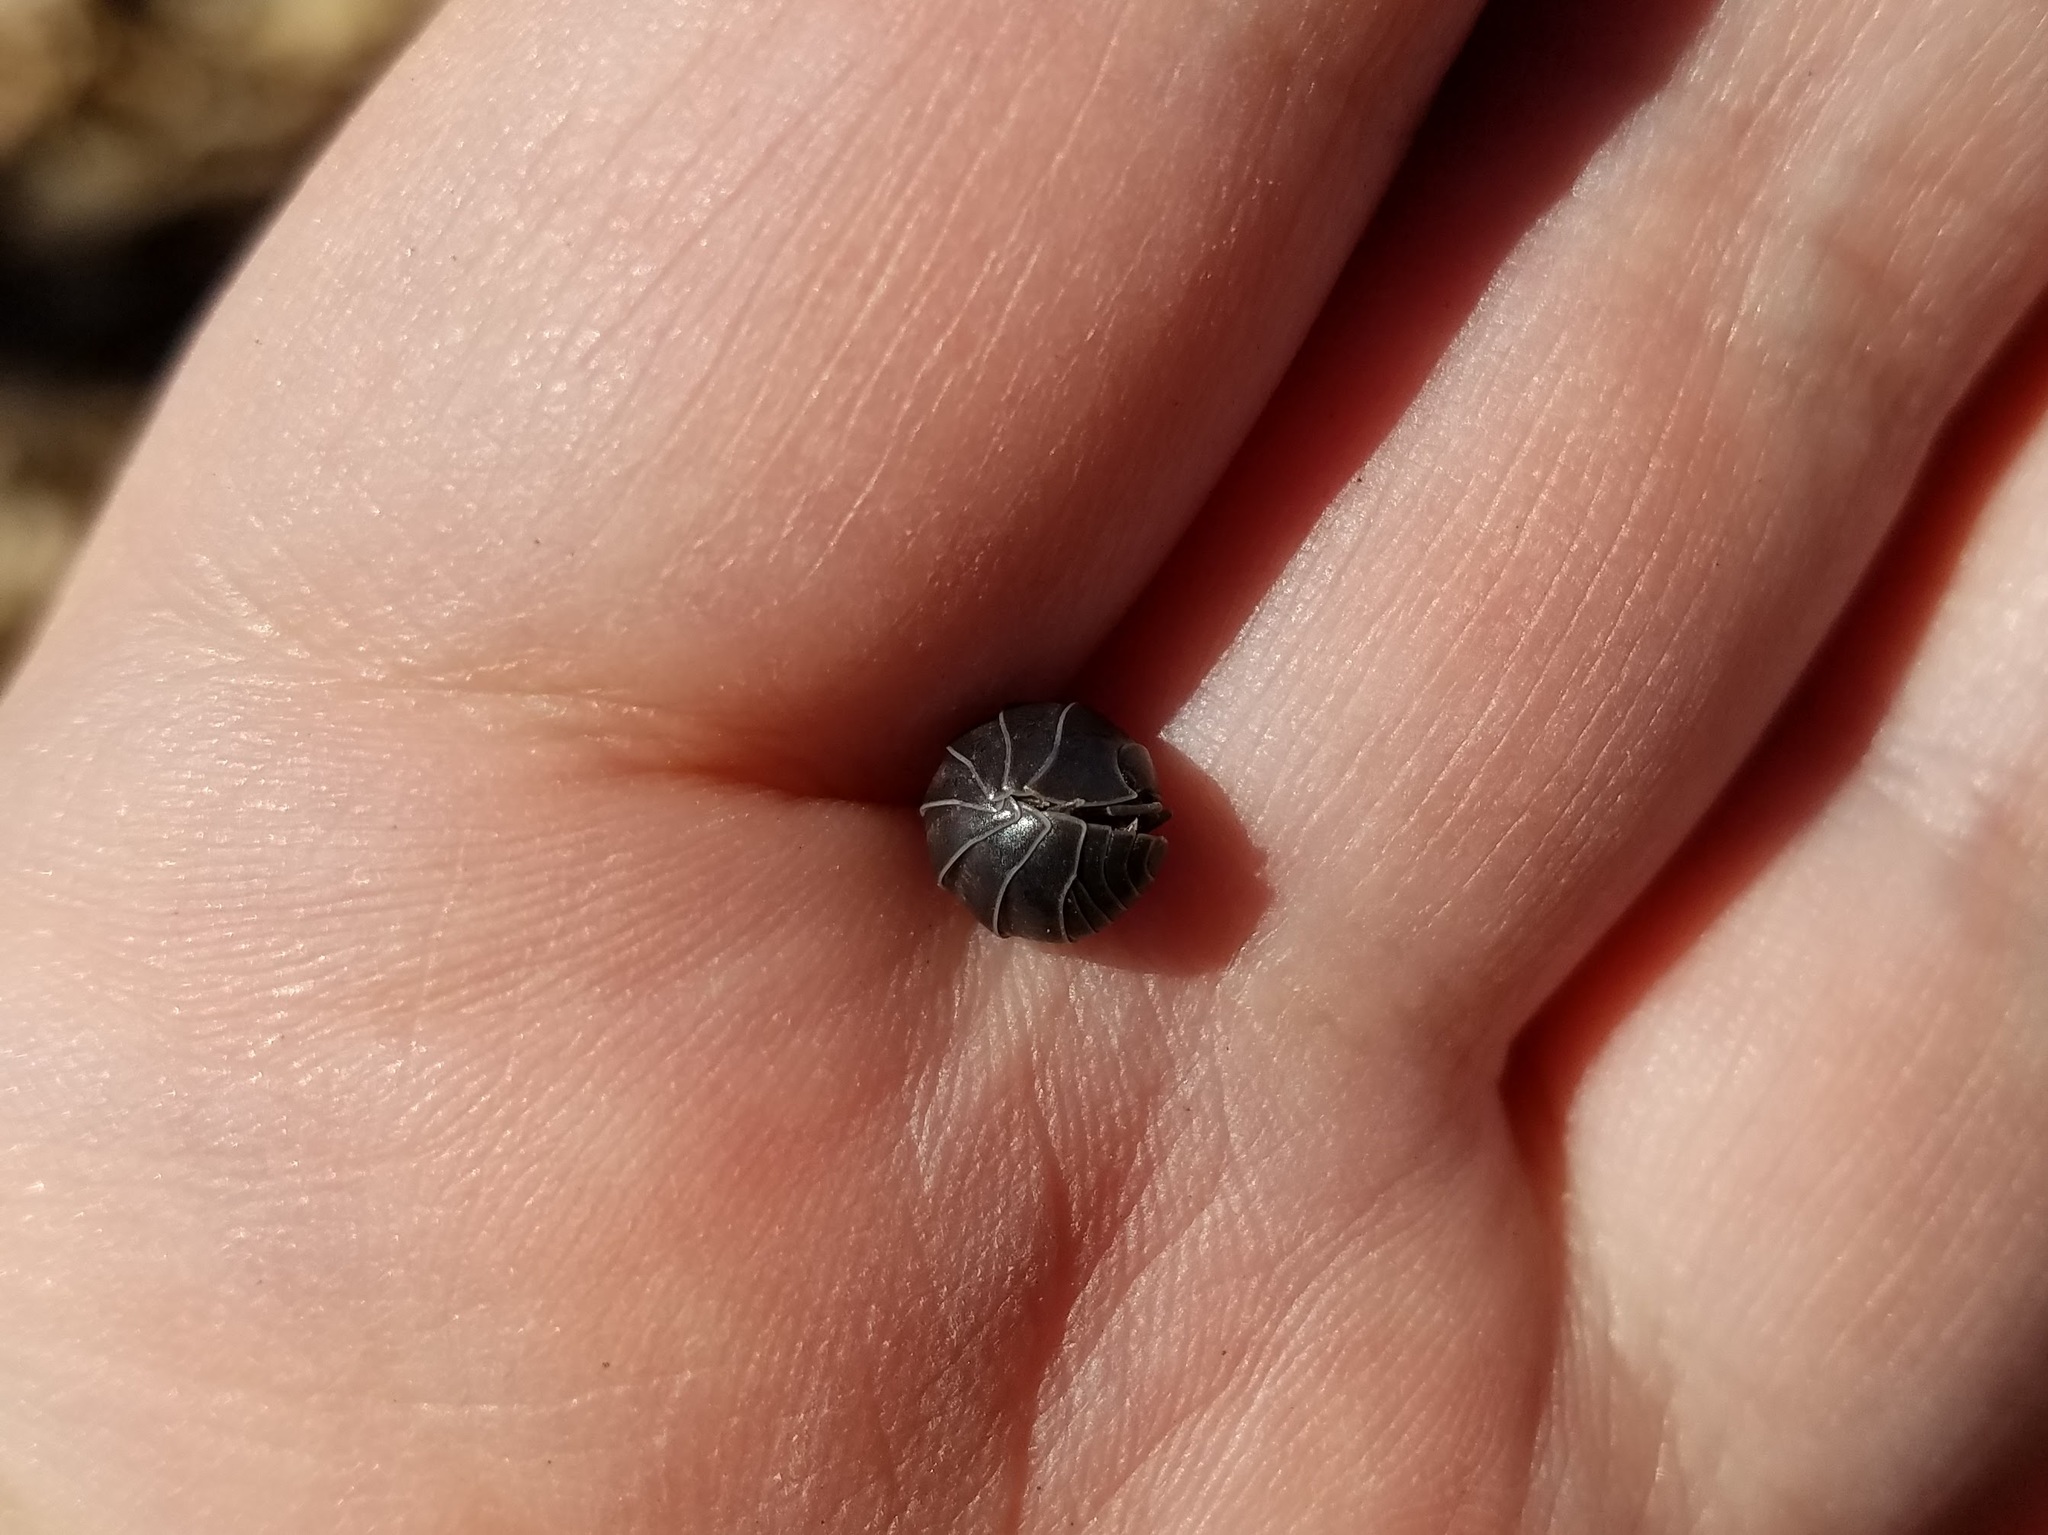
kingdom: Animalia
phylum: Arthropoda
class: Malacostraca
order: Isopoda
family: Armadillidiidae
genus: Armadillidium
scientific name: Armadillidium vulgare
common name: Common pill woodlouse
